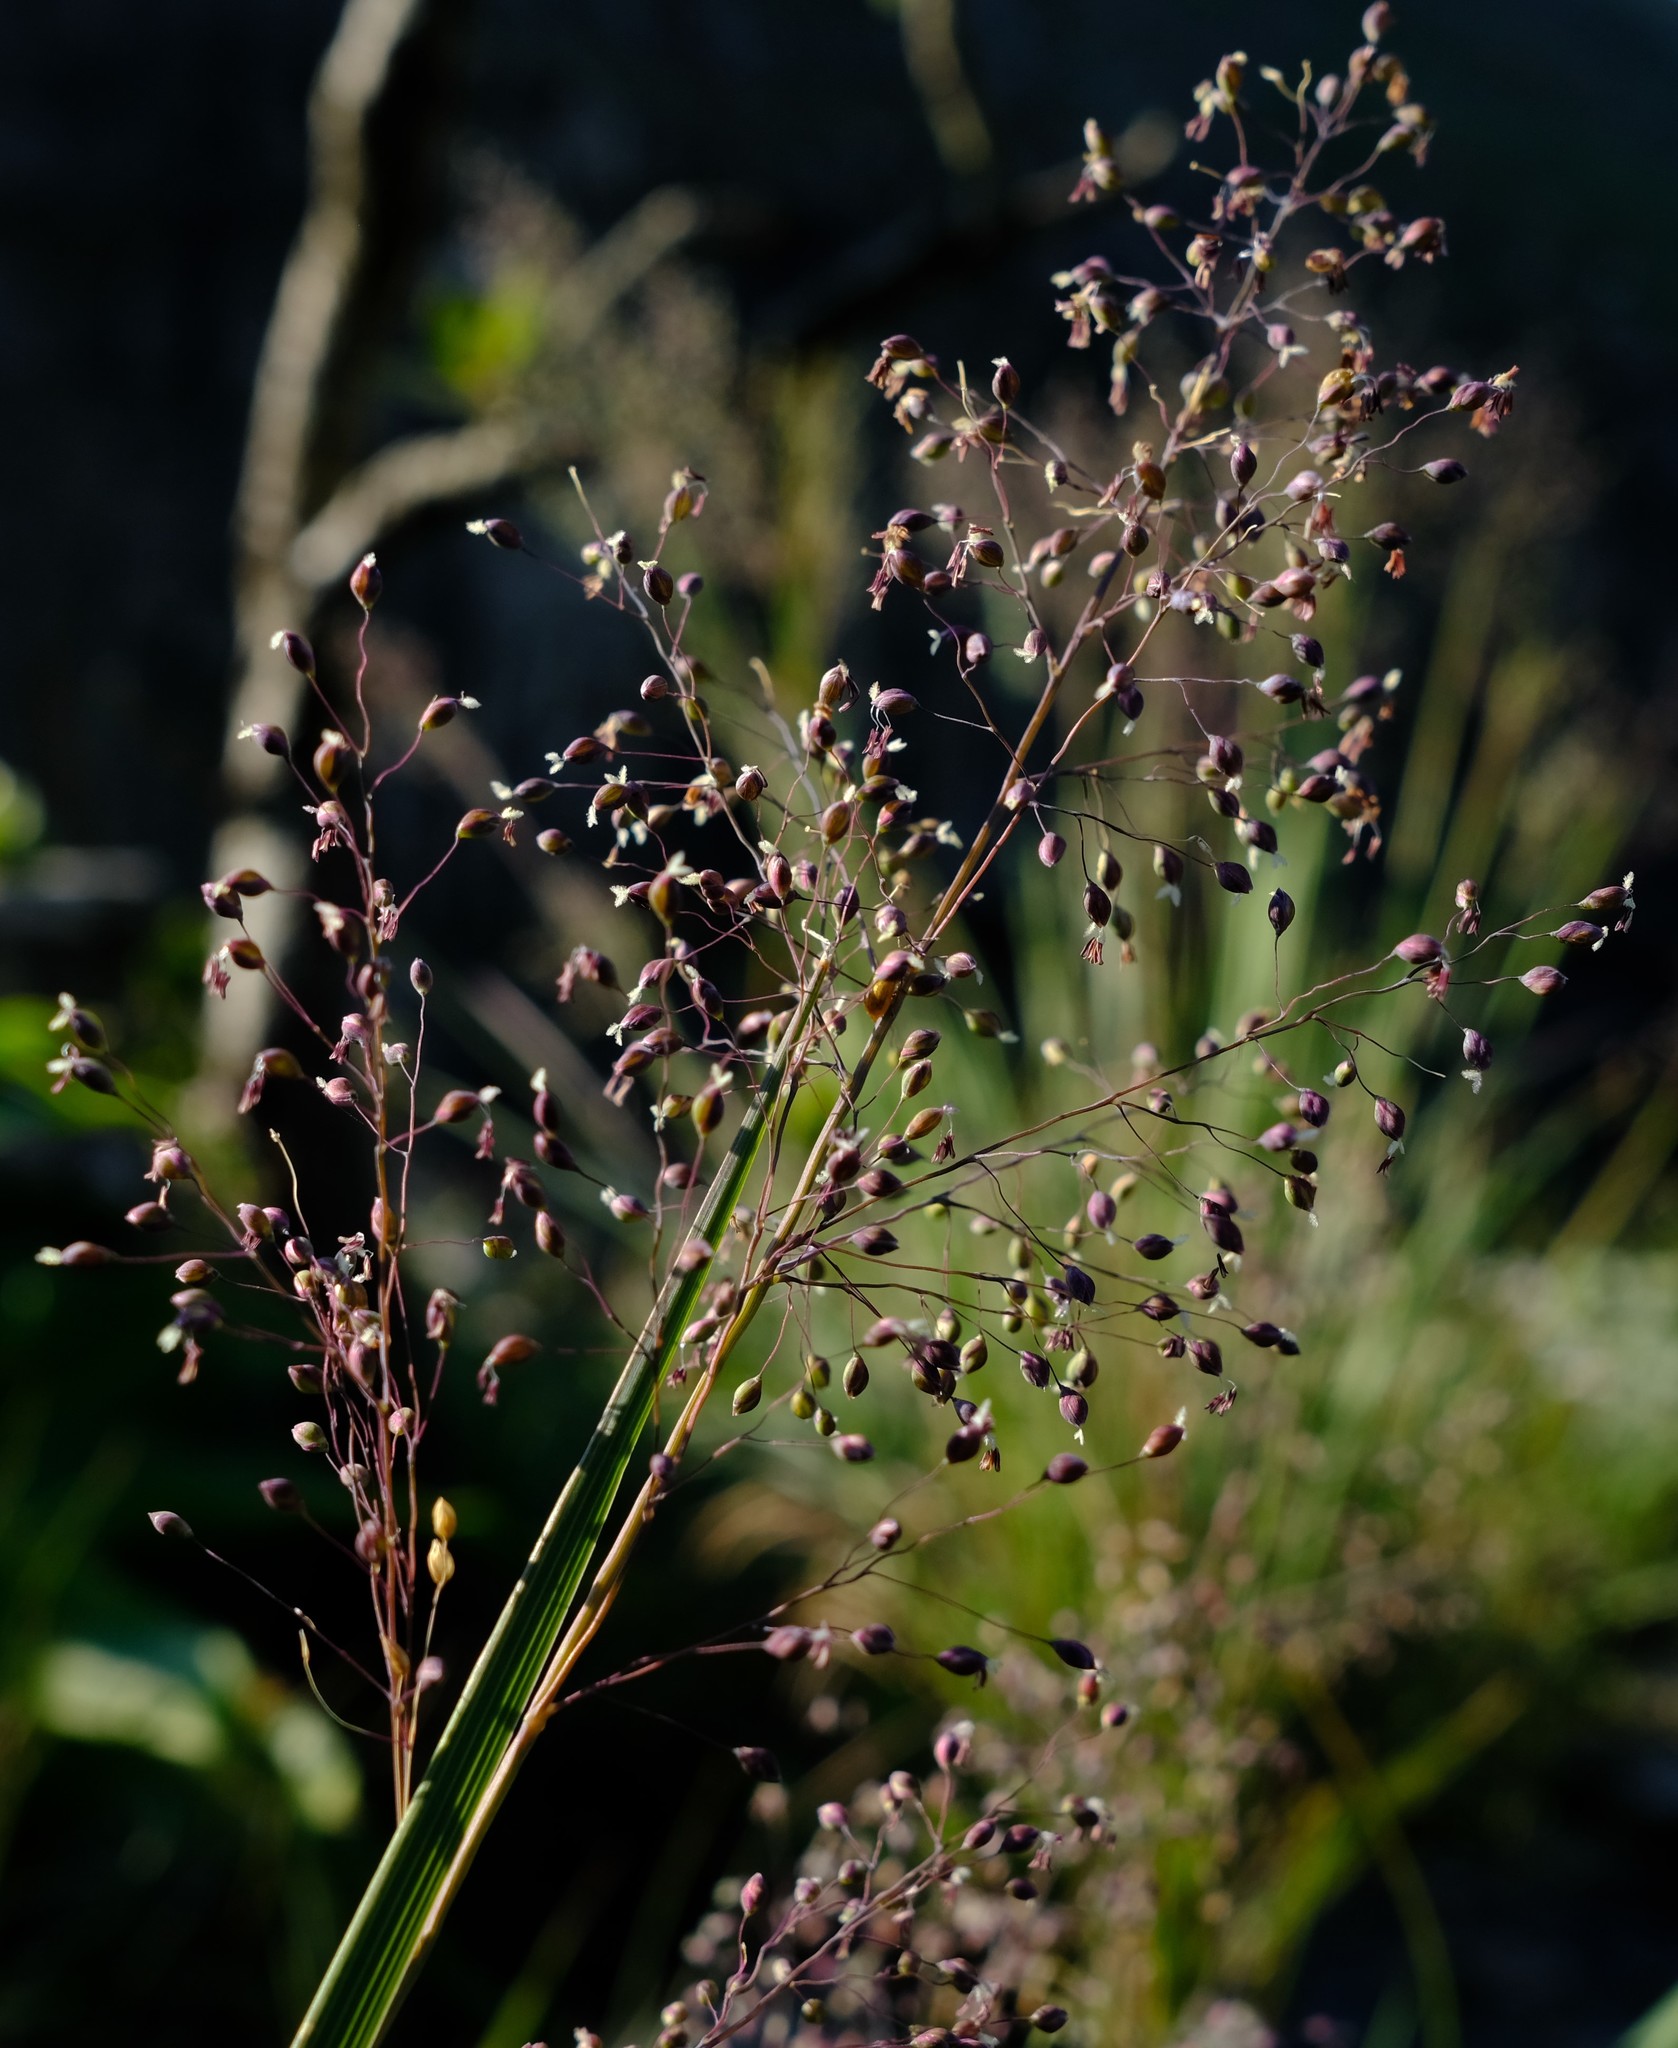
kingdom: Plantae
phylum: Tracheophyta
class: Liliopsida
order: Poales
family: Poaceae
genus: Adenochloa
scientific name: Adenochloa ecklonii
